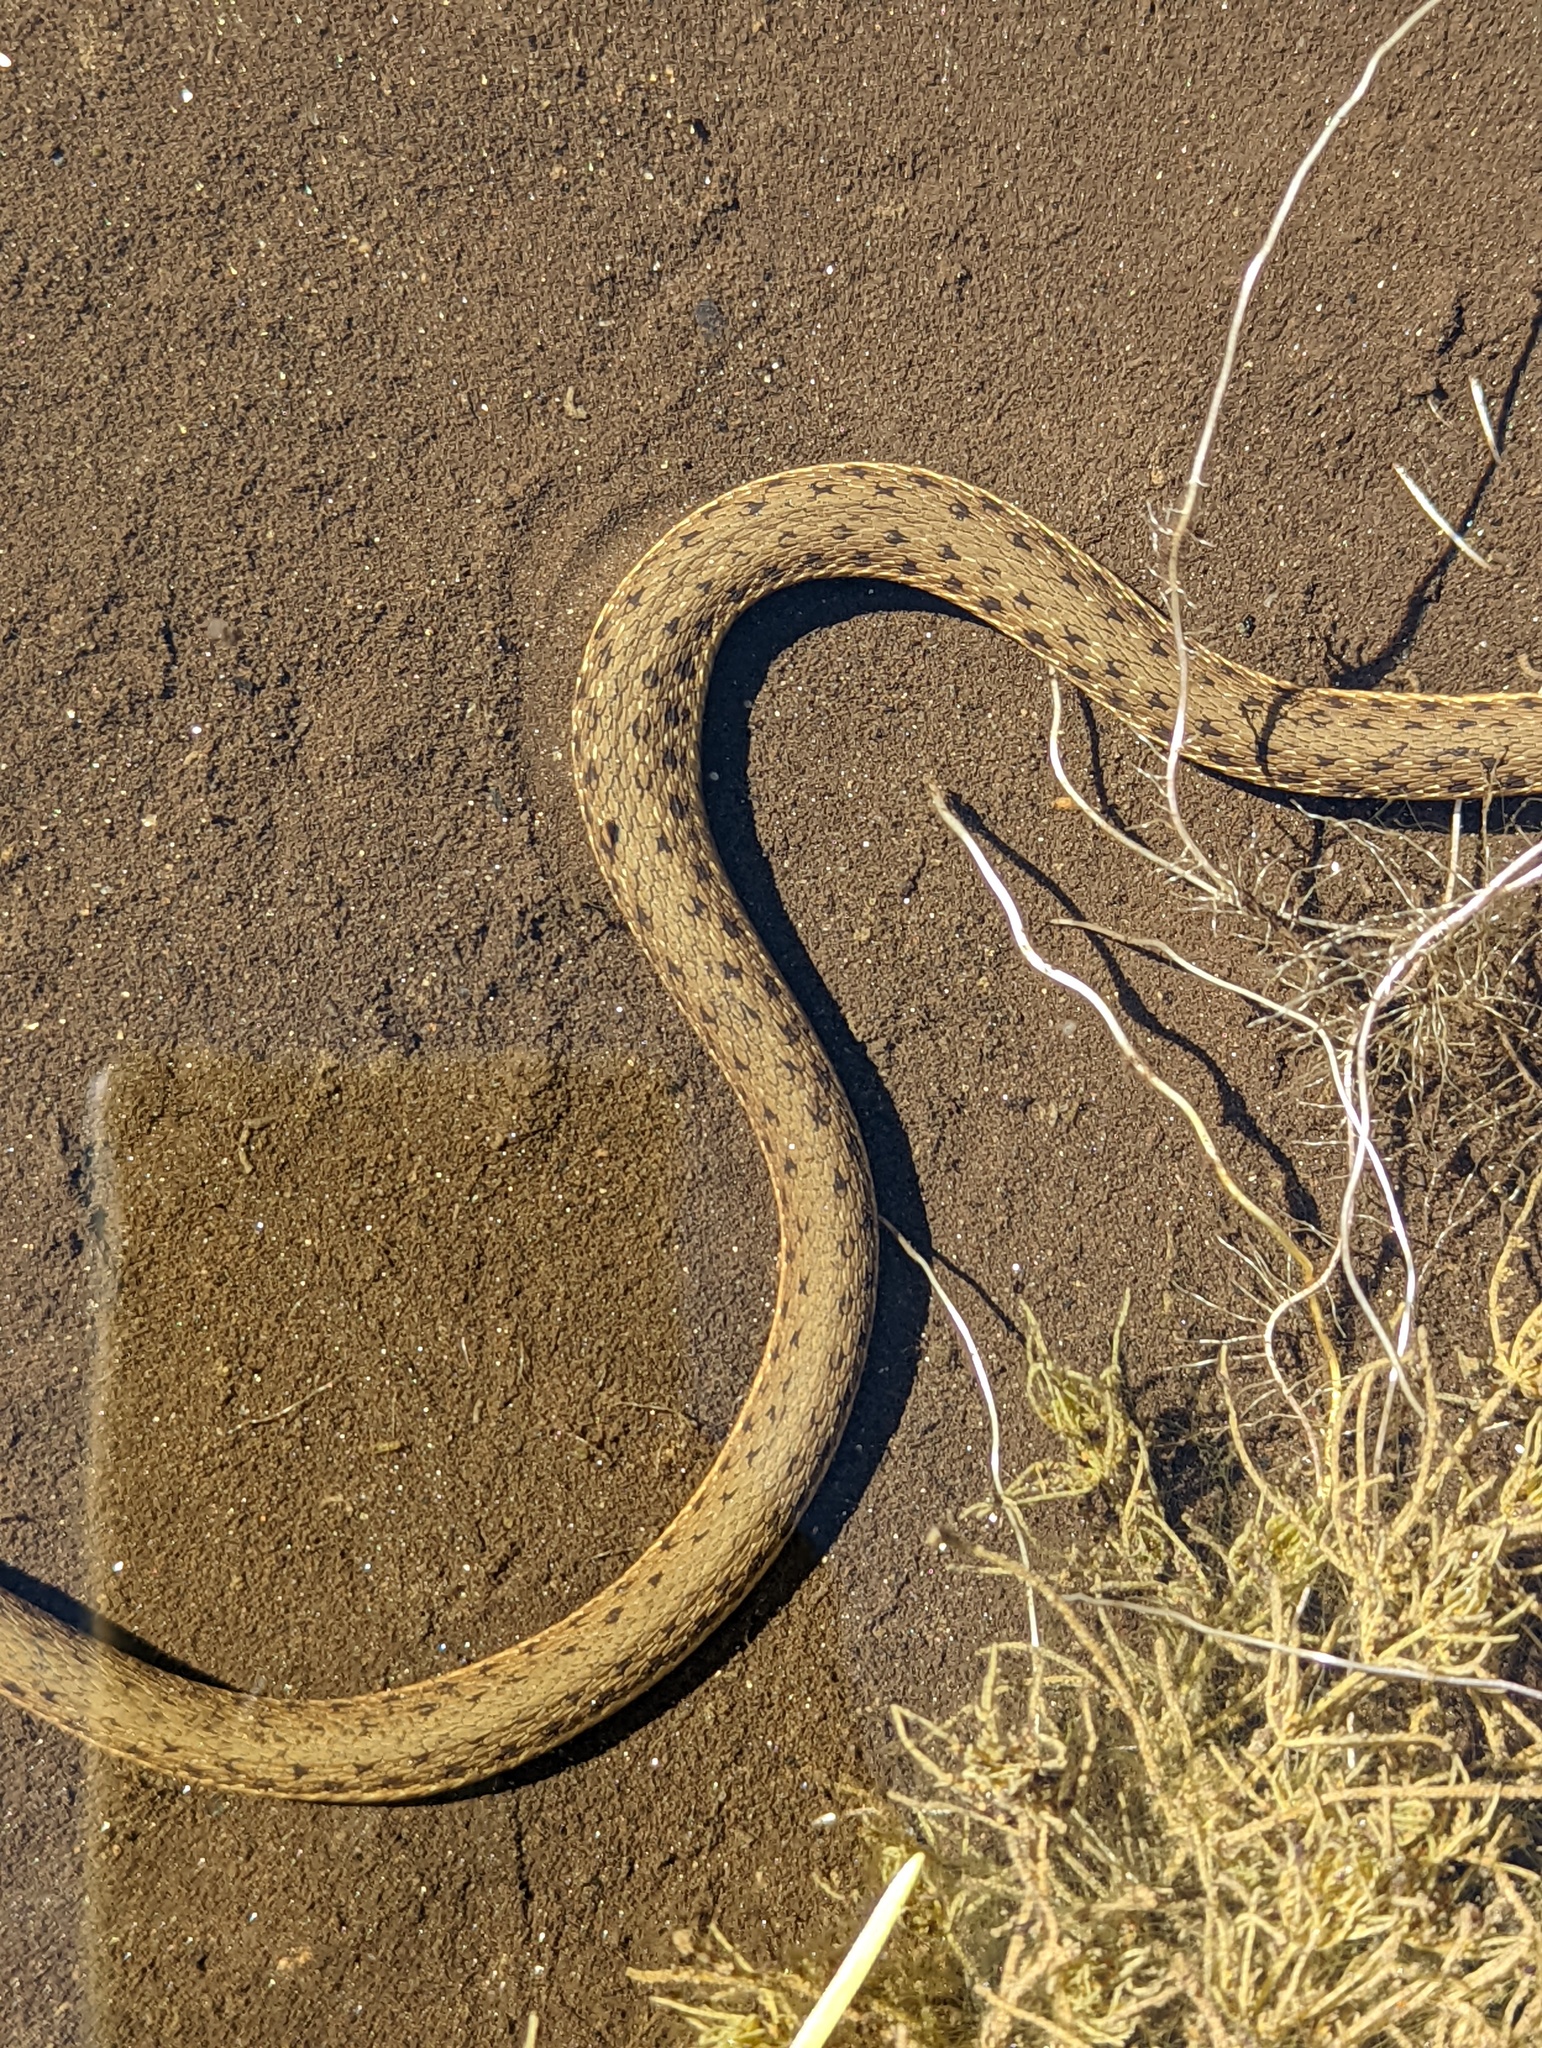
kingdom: Animalia
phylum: Chordata
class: Squamata
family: Colubridae
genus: Thamnophis
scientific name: Thamnophis hammondii
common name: Two-striped garter snake
